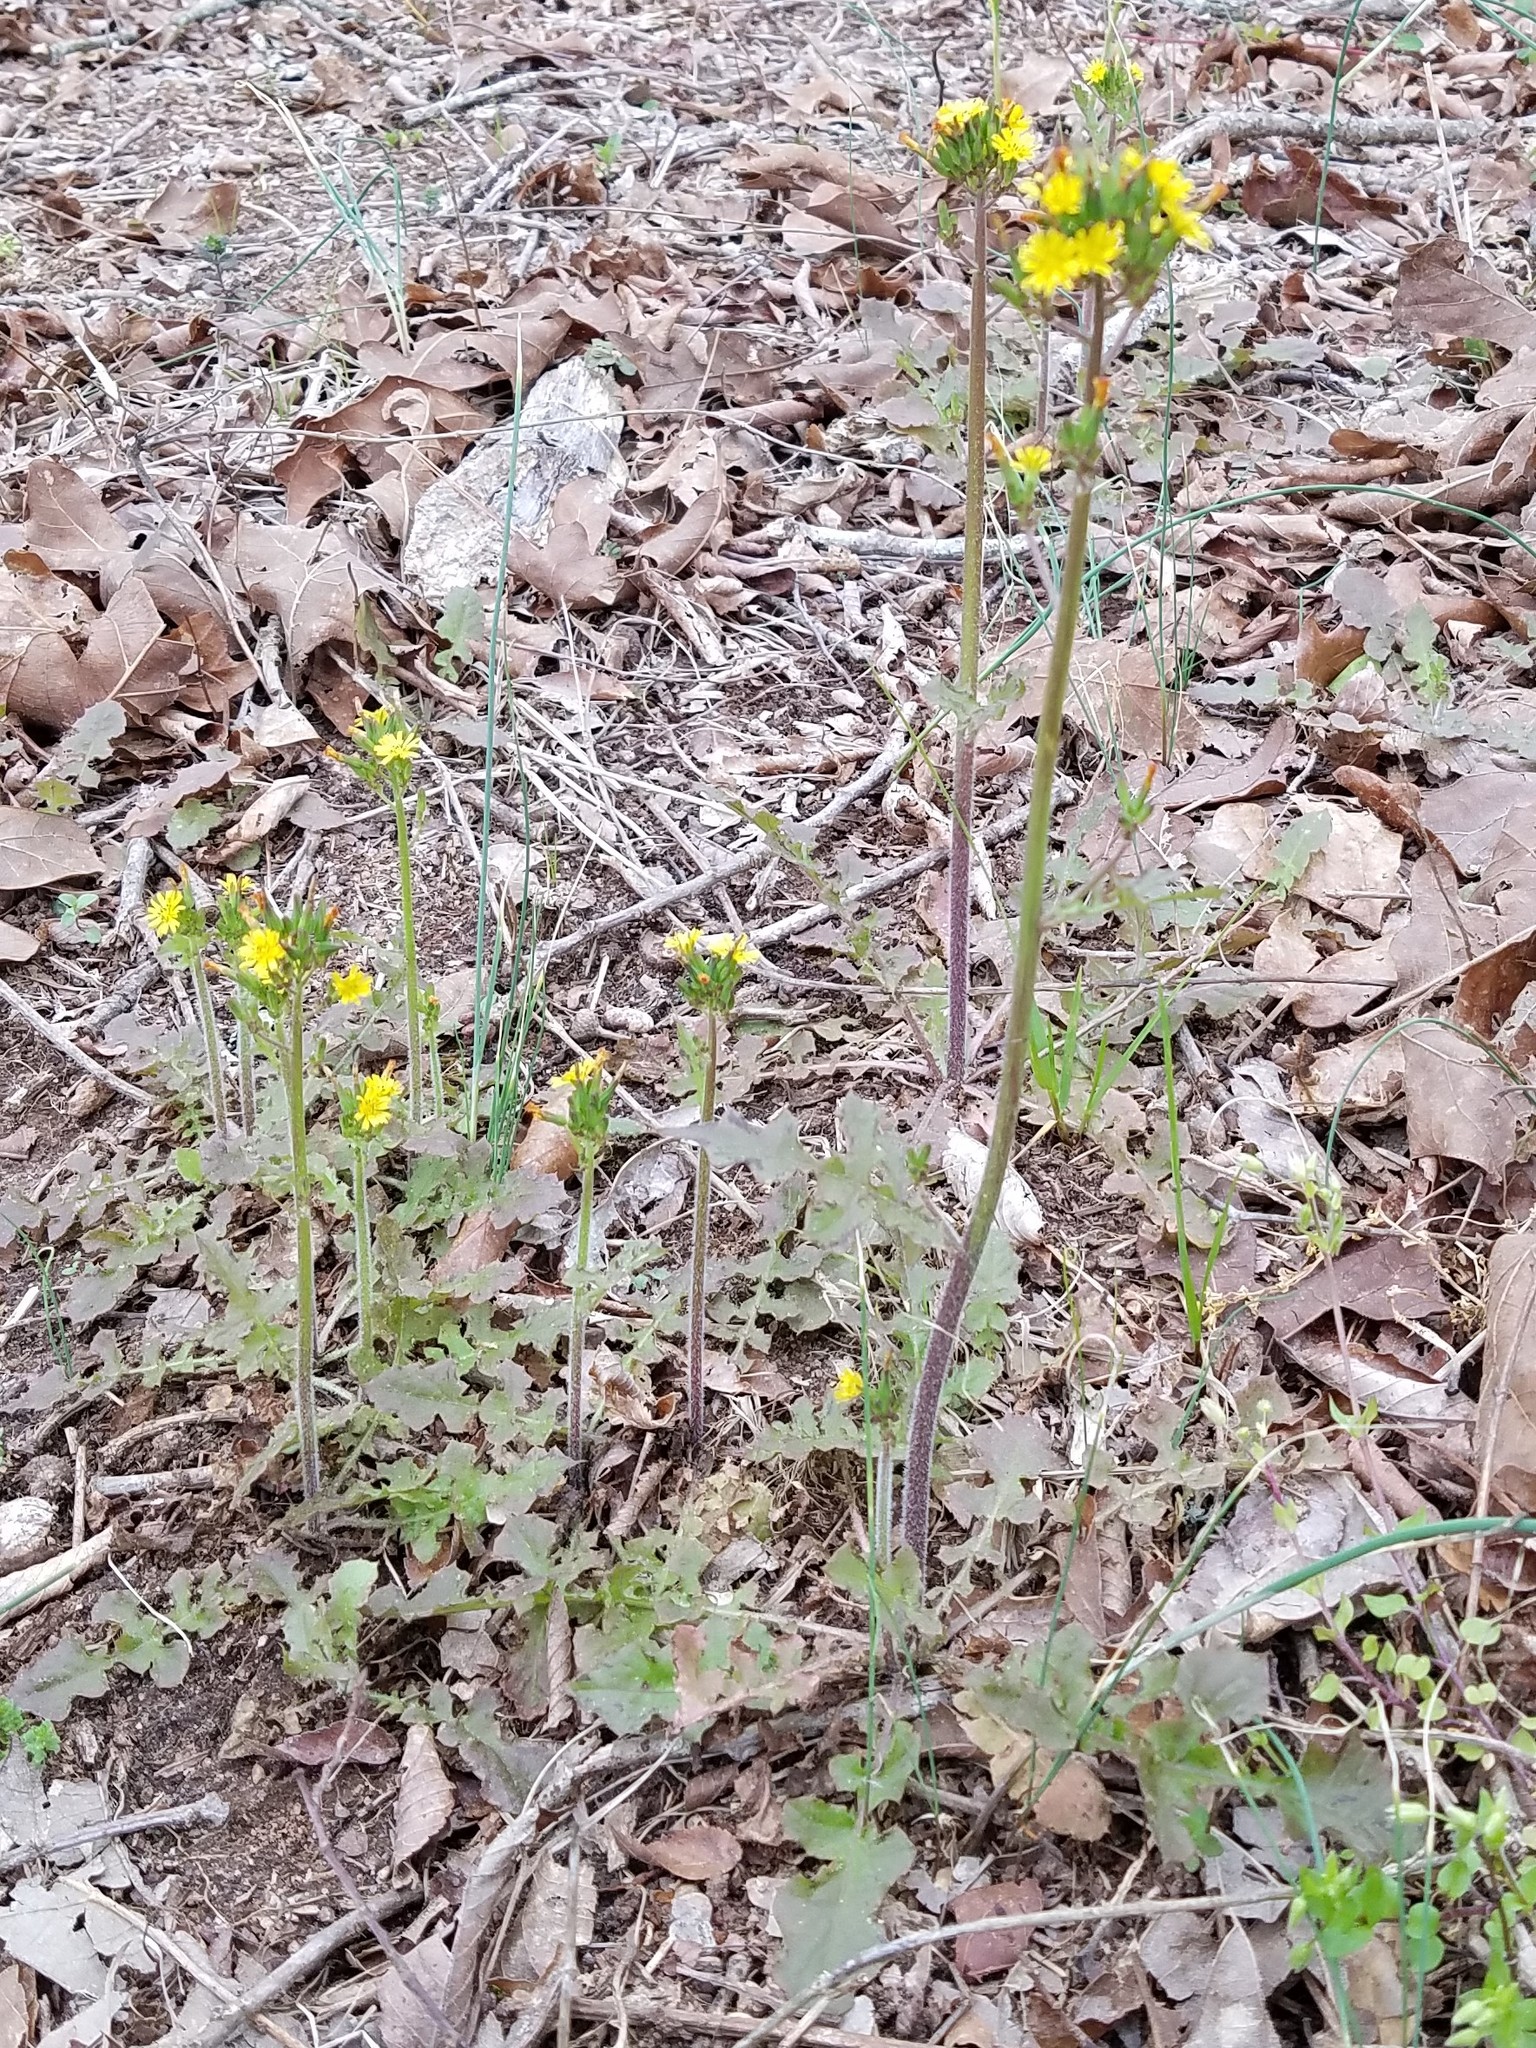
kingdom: Plantae
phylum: Tracheophyta
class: Magnoliopsida
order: Asterales
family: Asteraceae
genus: Youngia
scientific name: Youngia japonica
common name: Oriental false hawksbeard
